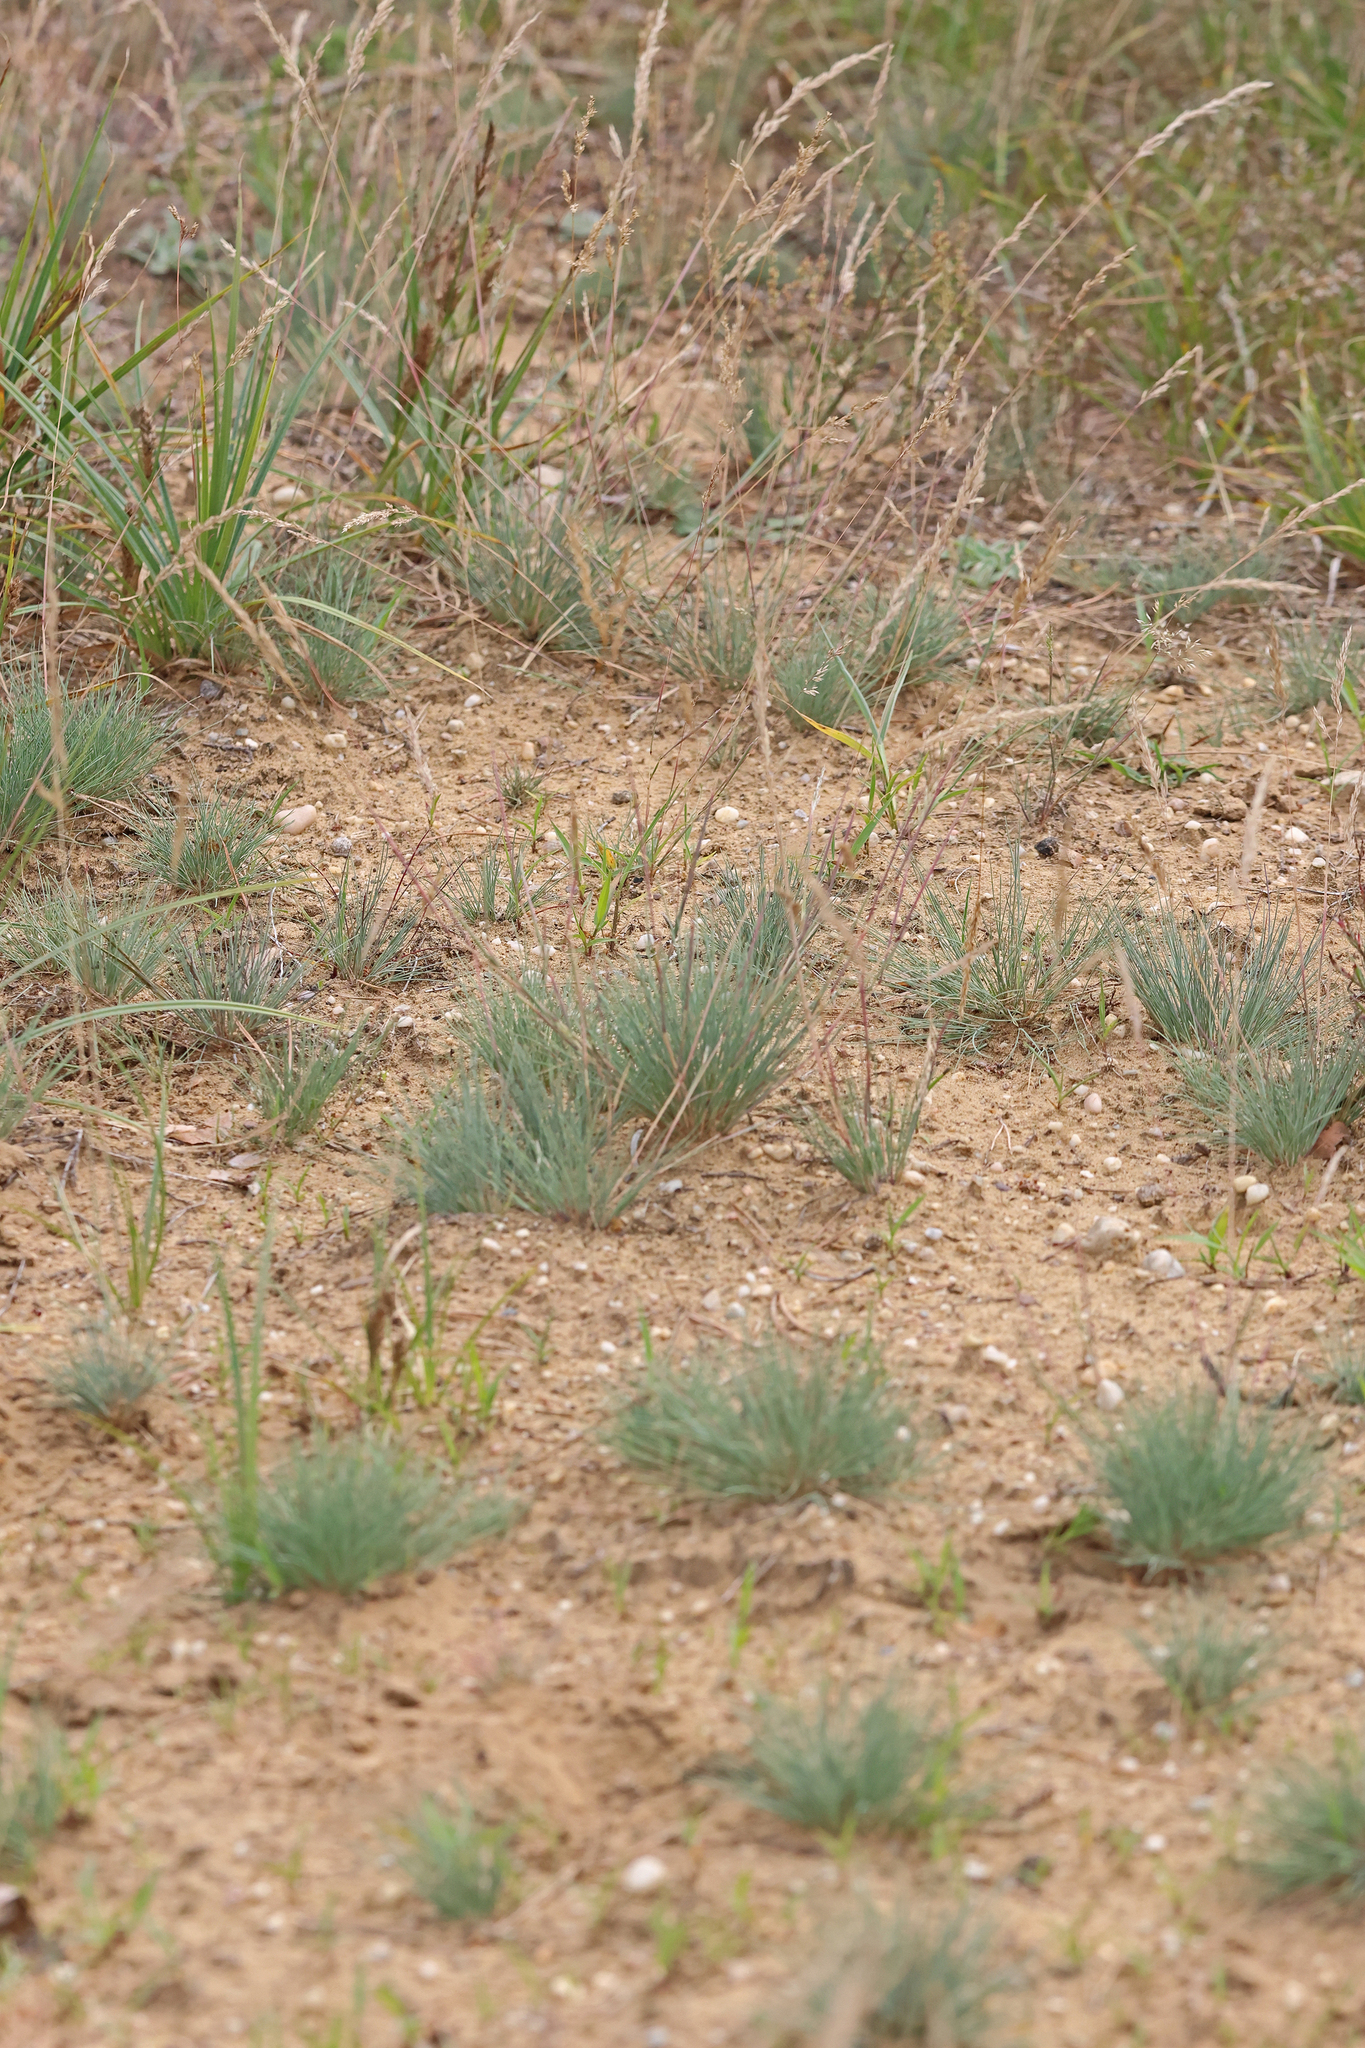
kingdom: Plantae
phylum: Tracheophyta
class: Liliopsida
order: Poales
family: Poaceae
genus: Corynephorus
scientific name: Corynephorus canescens
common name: Grey hair-grass
